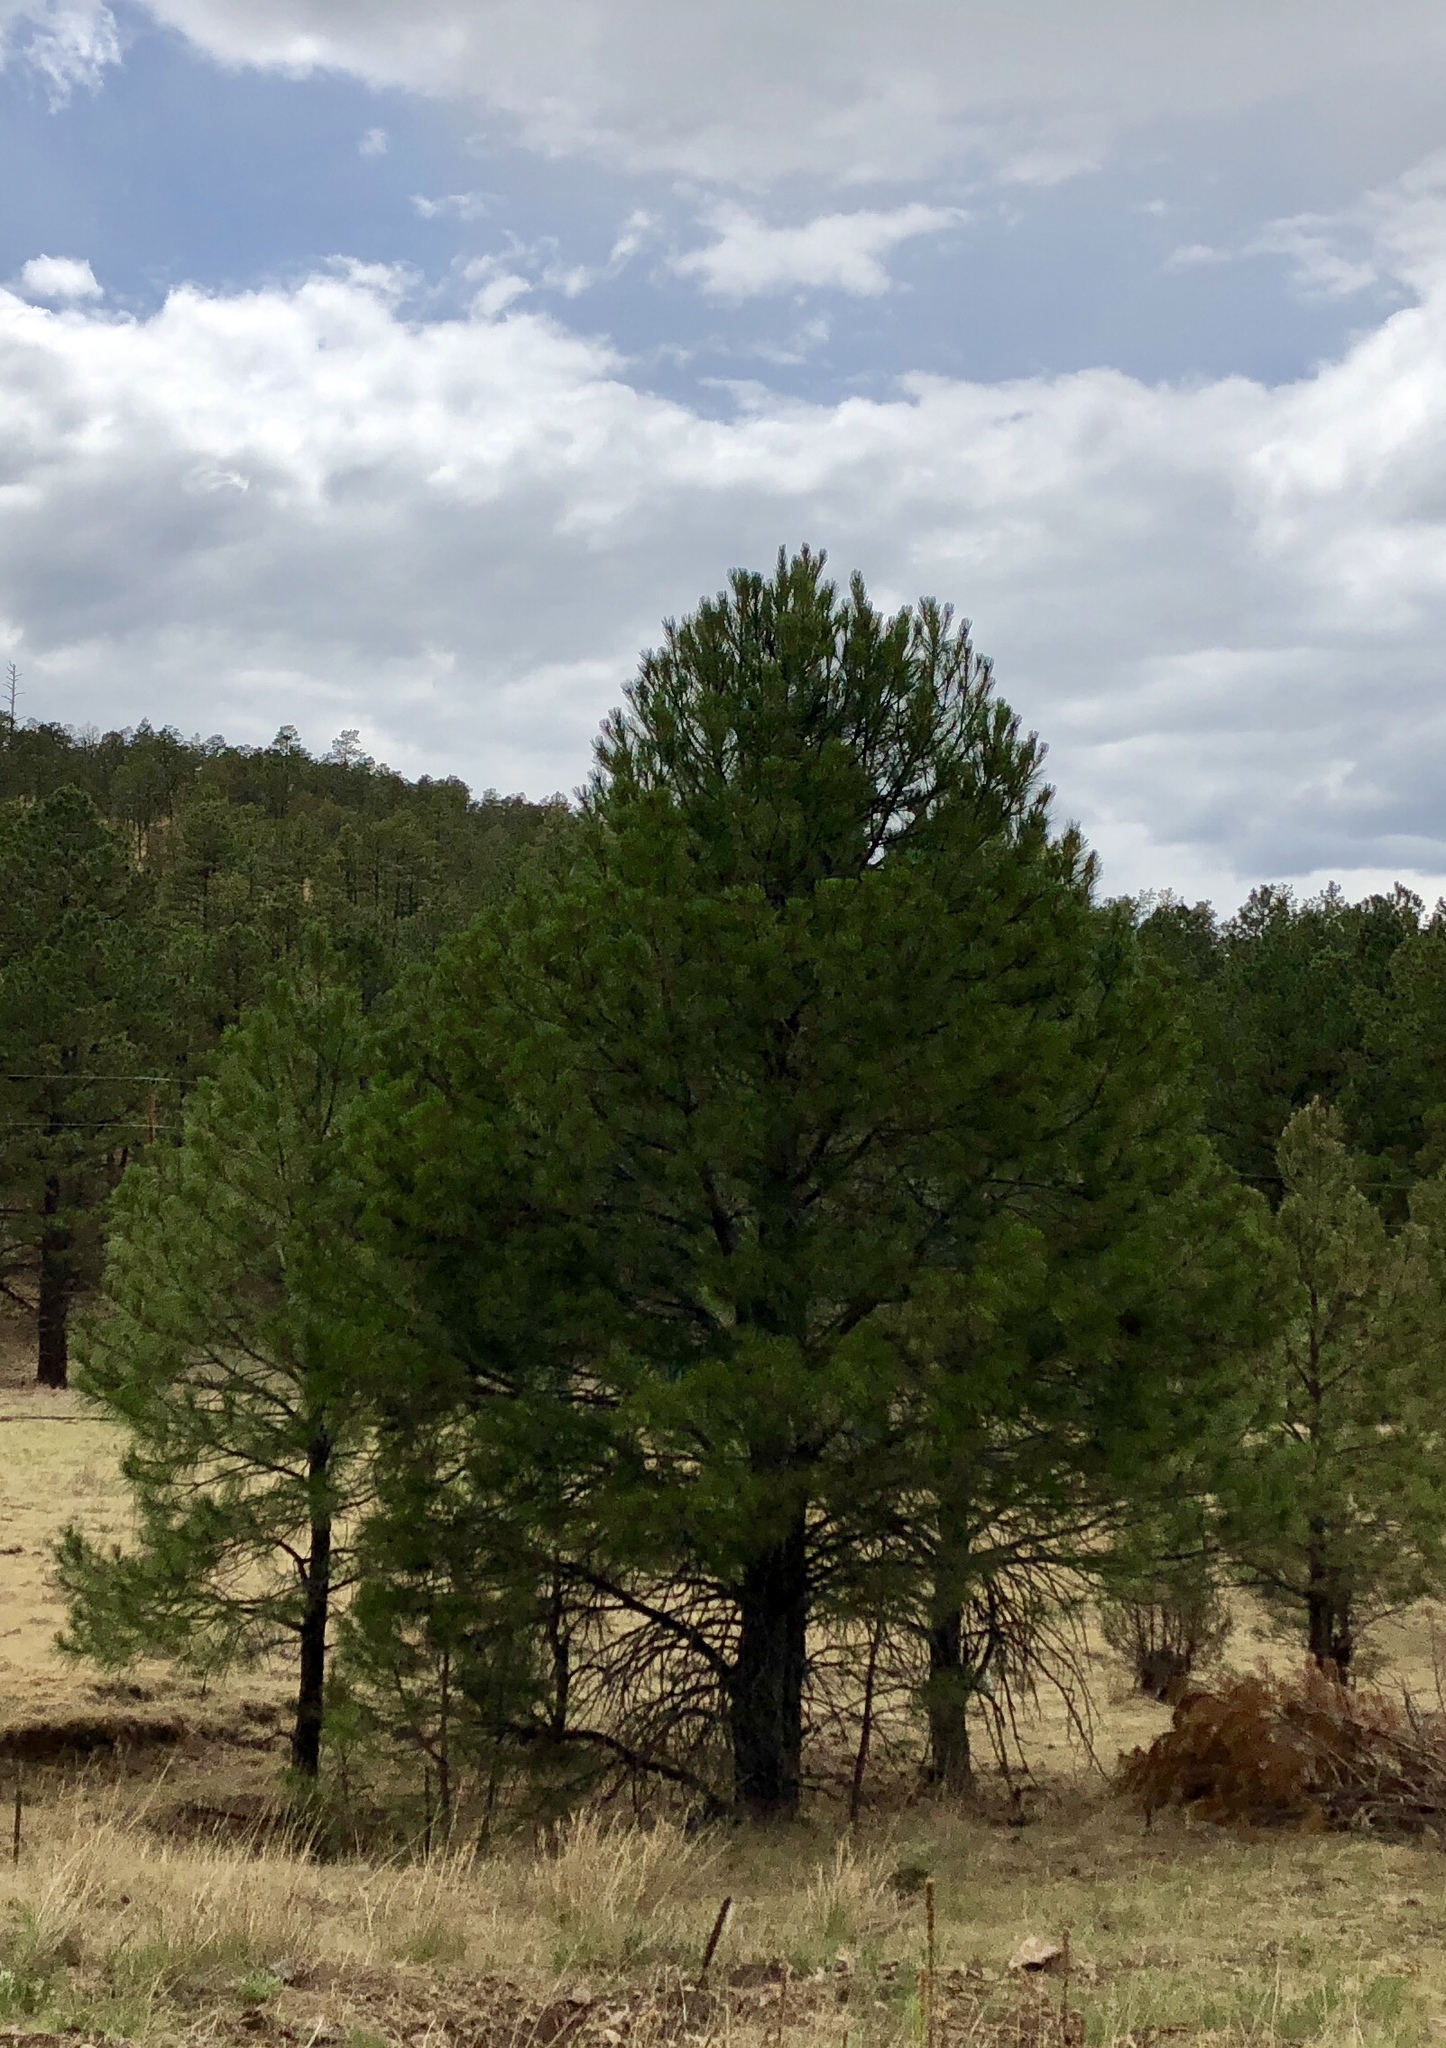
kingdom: Plantae
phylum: Tracheophyta
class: Pinopsida
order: Pinales
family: Pinaceae
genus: Pinus
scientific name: Pinus ponderosa
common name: Western yellow-pine
